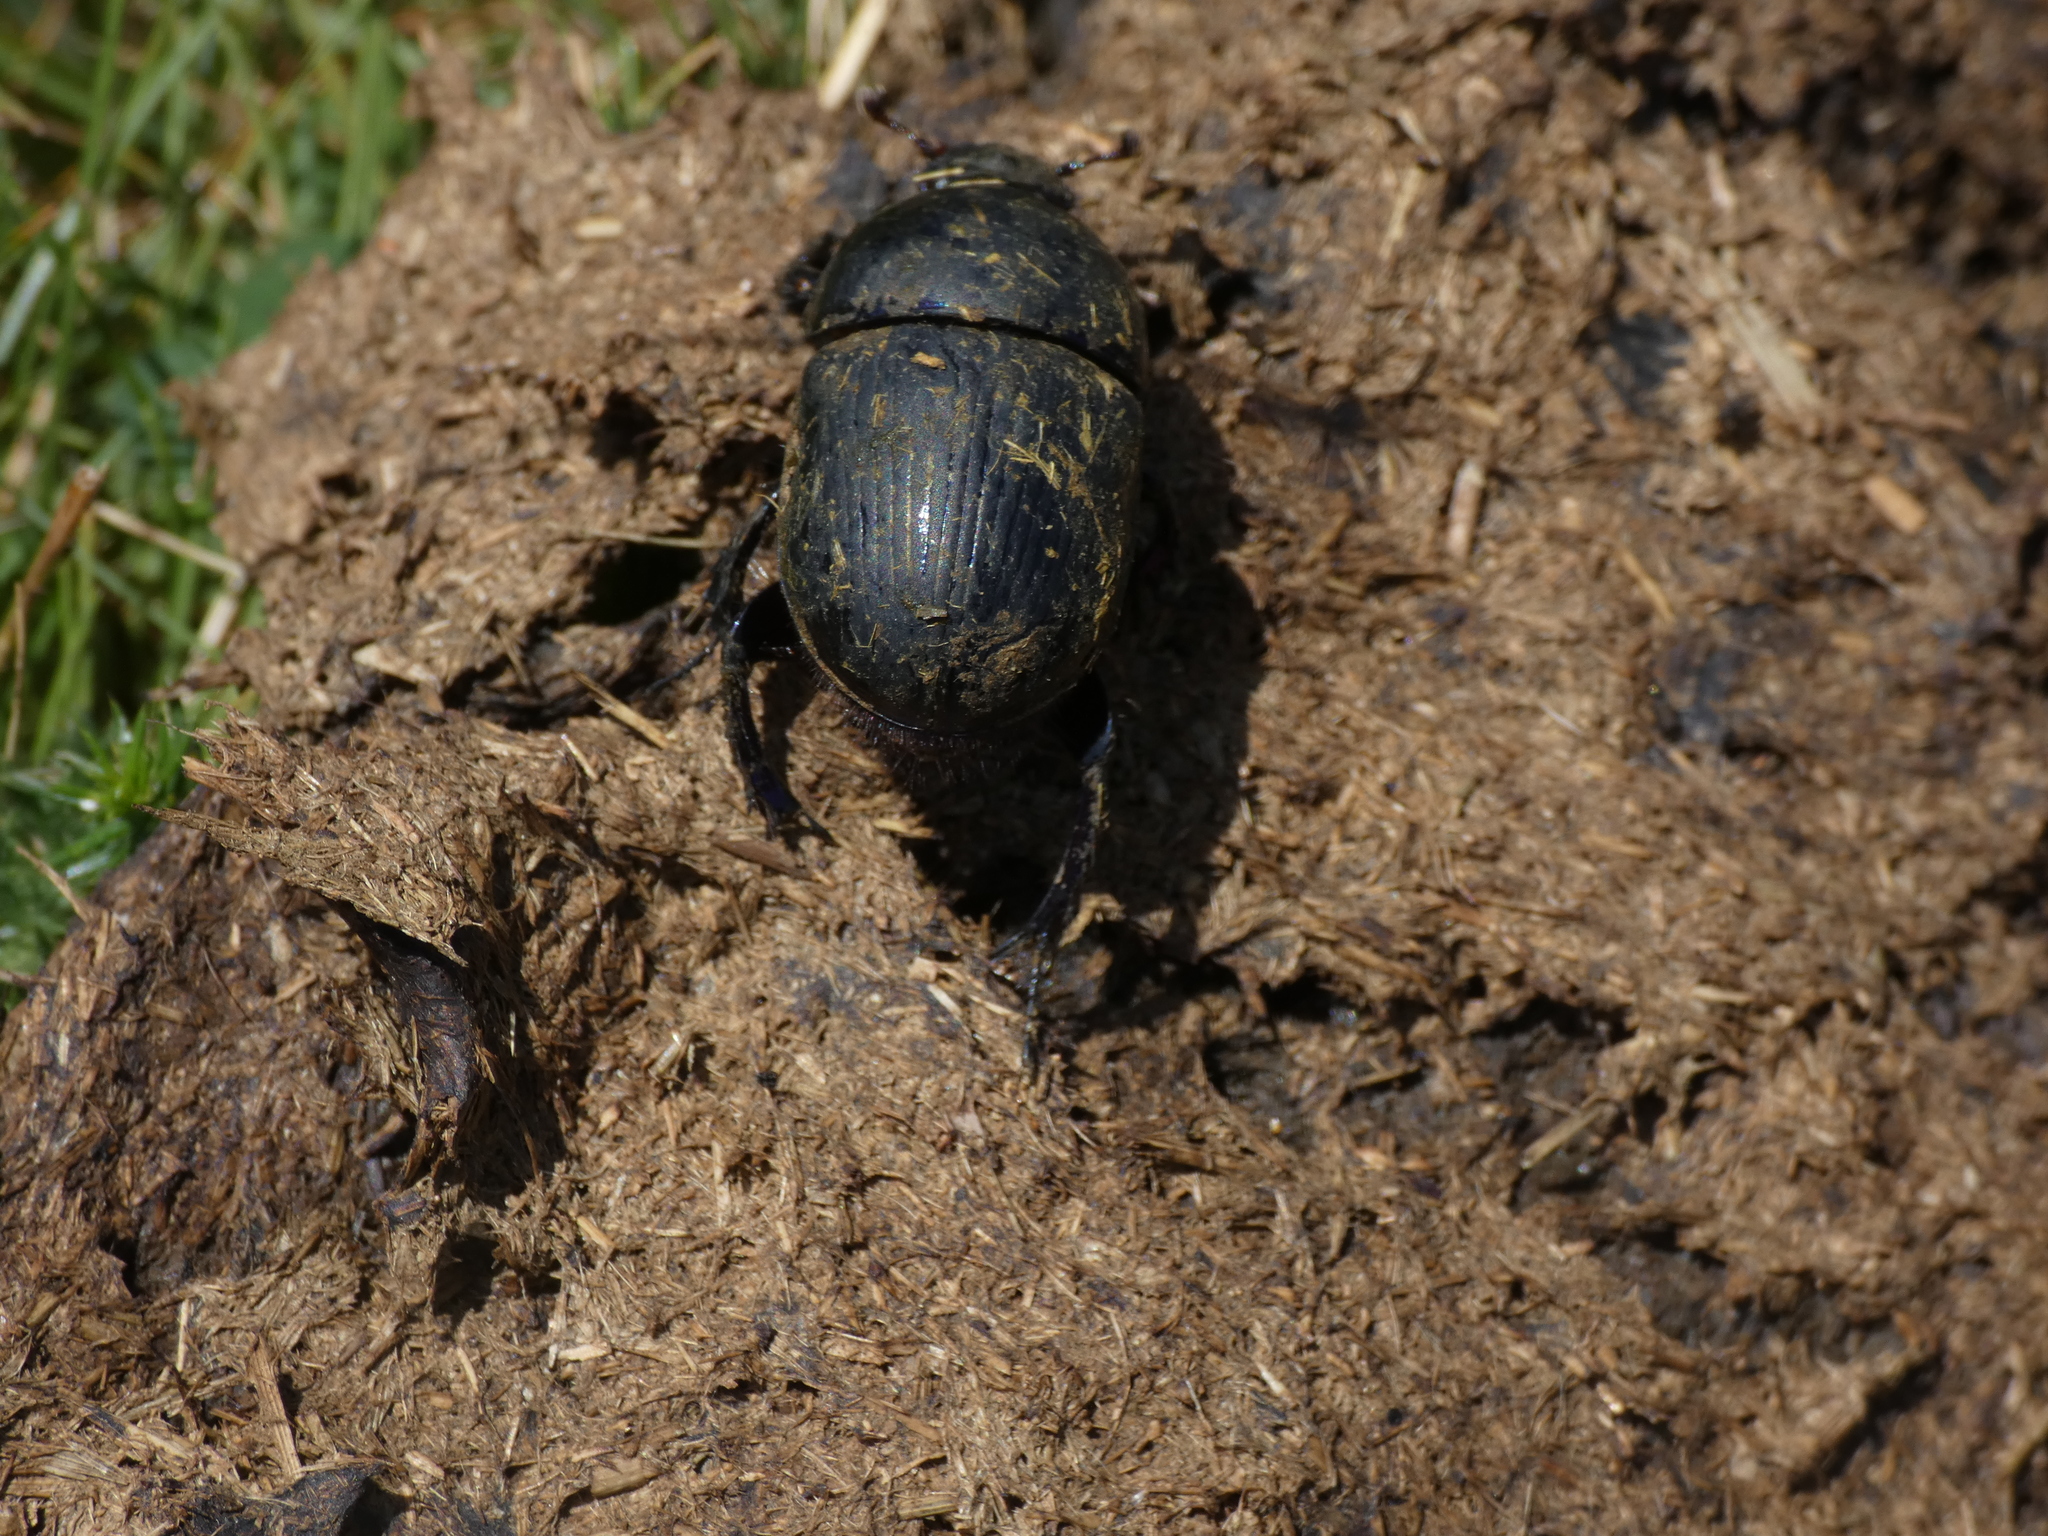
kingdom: Animalia
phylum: Arthropoda
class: Insecta
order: Coleoptera
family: Geotrupidae
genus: Anoplotrupes
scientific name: Anoplotrupes stercorosus
